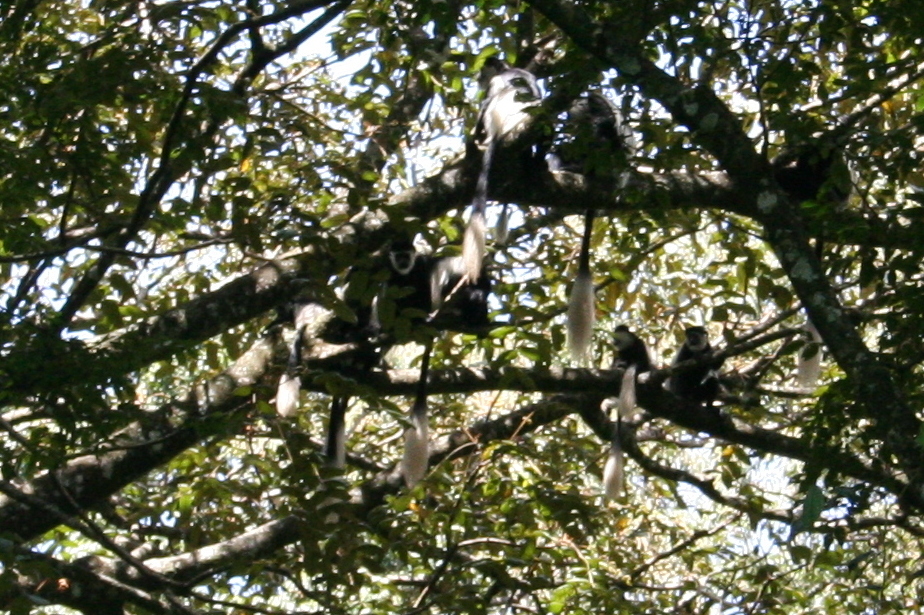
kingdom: Animalia
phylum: Chordata
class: Mammalia
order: Primates
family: Cercopithecidae
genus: Colobus
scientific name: Colobus guereza
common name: Mantled guereza
